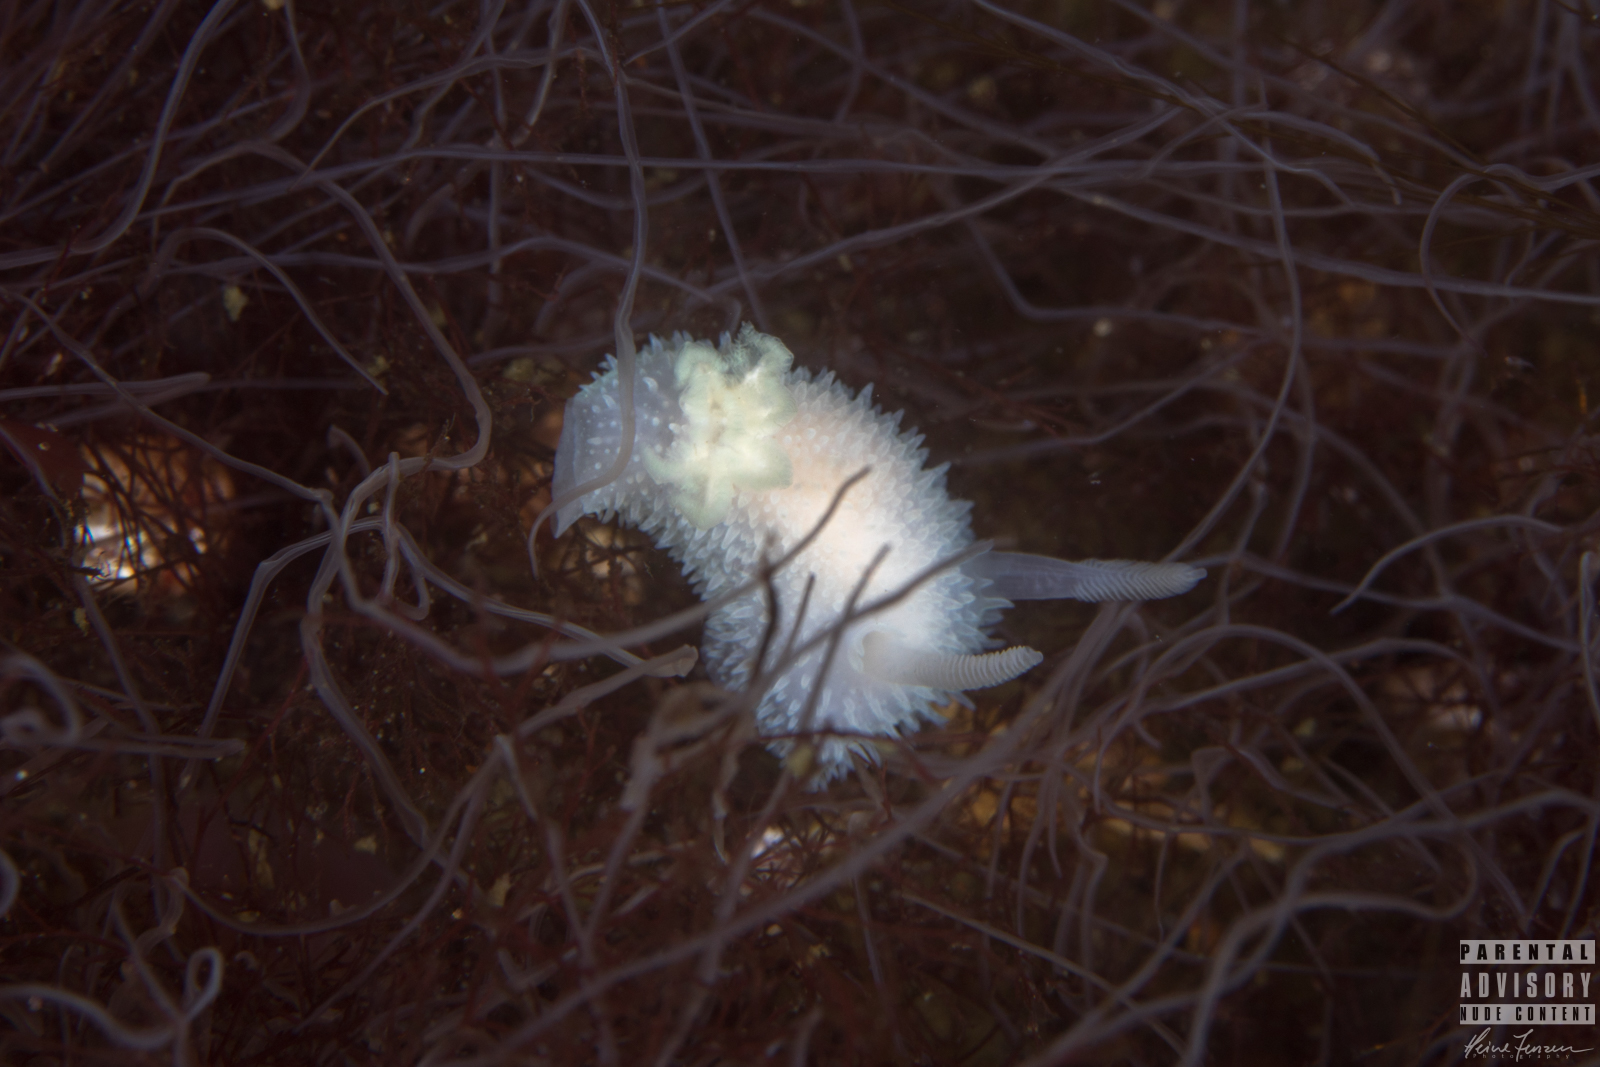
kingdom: Animalia
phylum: Mollusca
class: Gastropoda
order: Nudibranchia
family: Onchidorididae
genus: Acanthodoris
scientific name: Acanthodoris pilosa
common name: Hairy spiny doris
